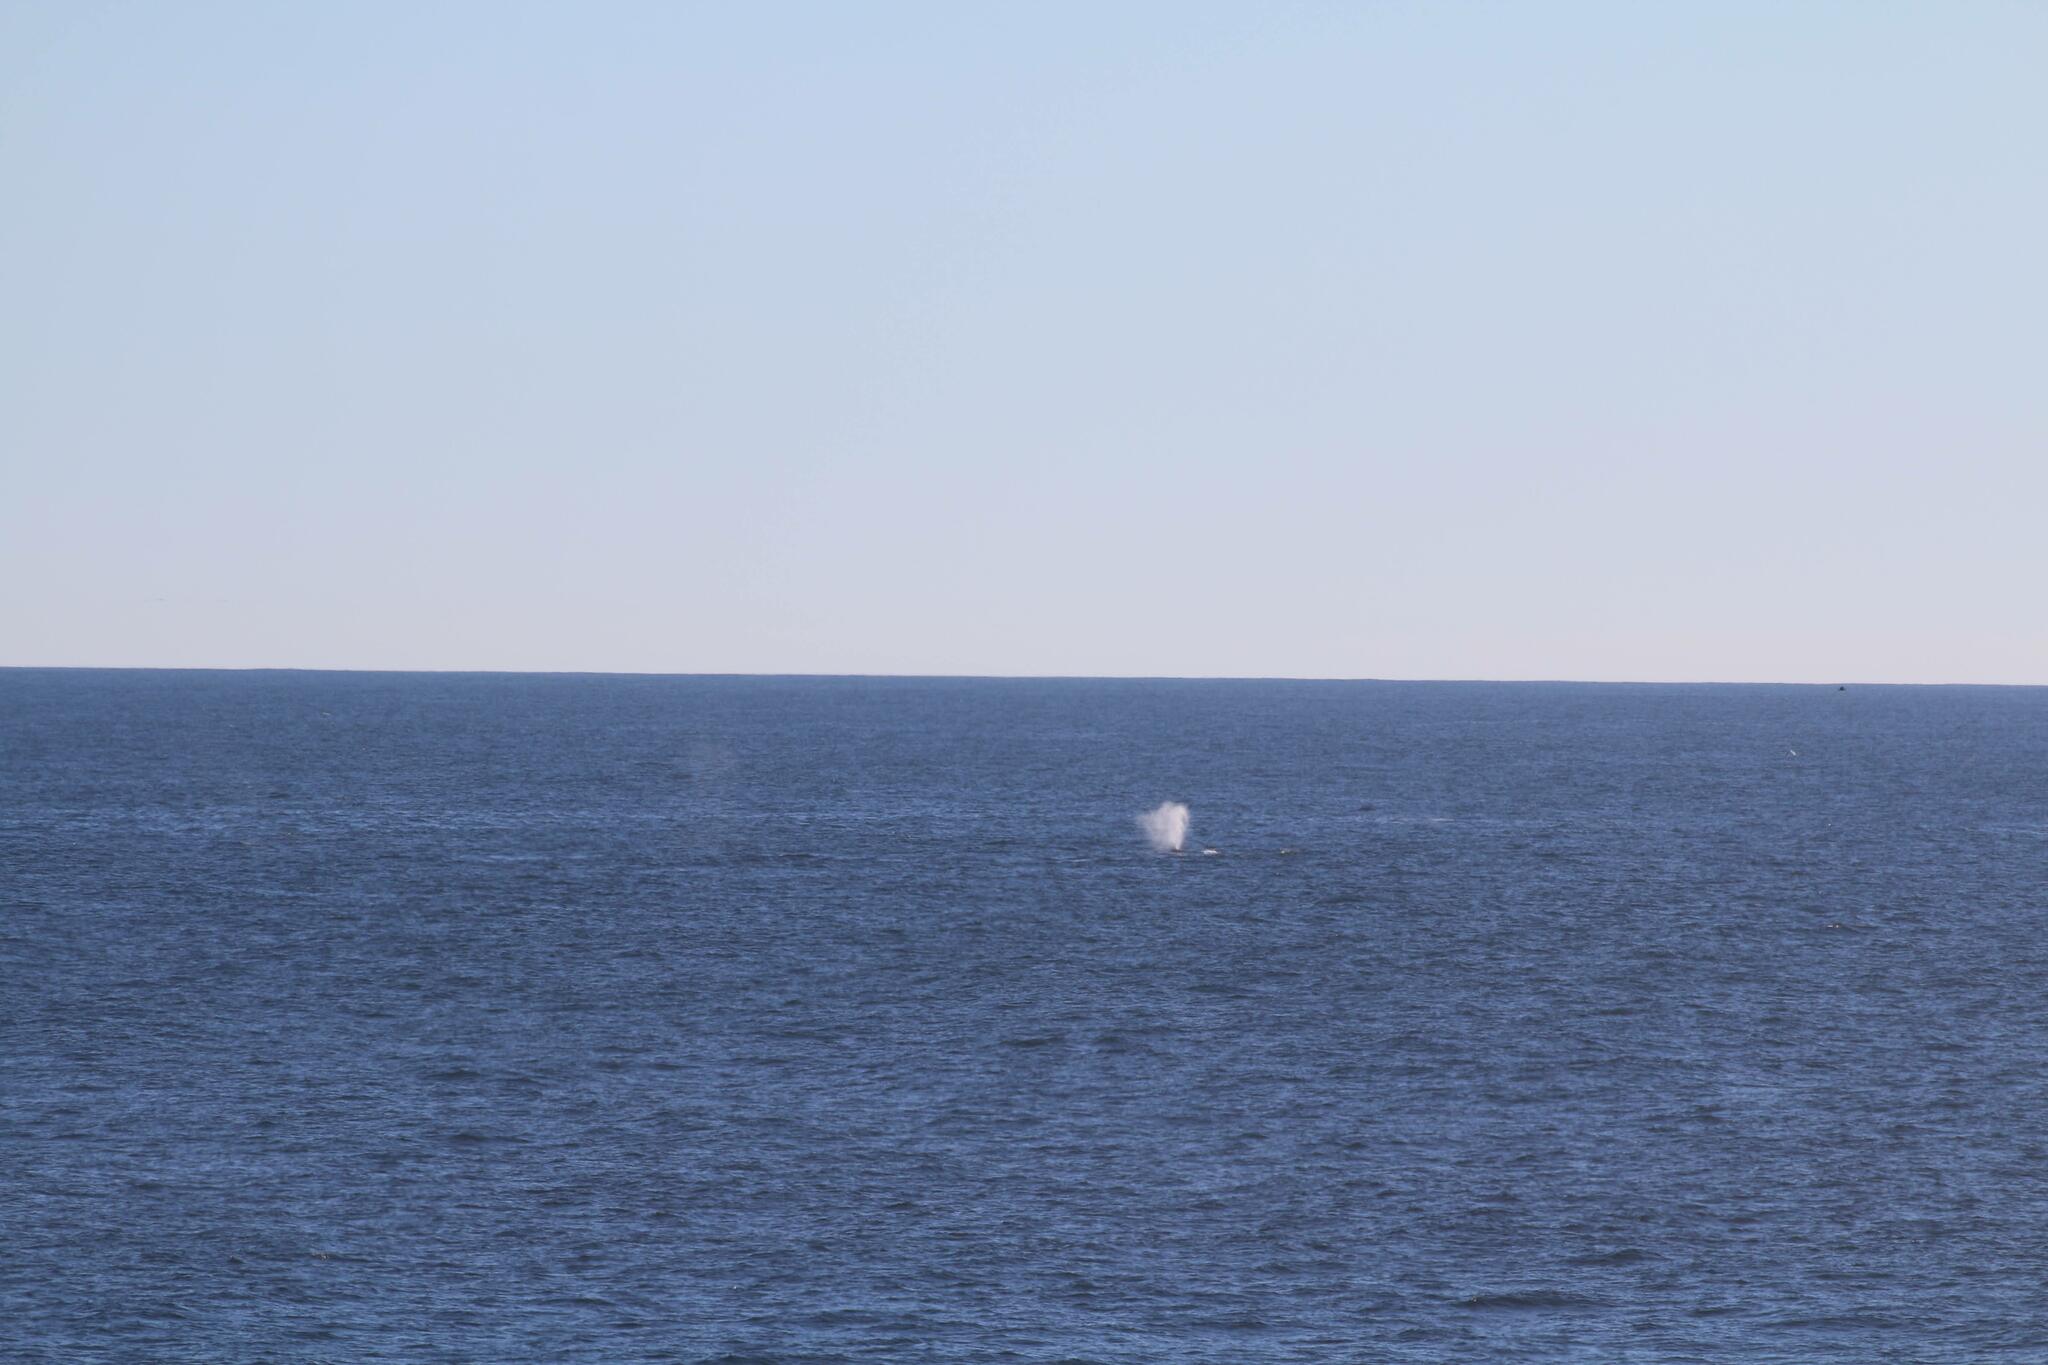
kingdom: Animalia
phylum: Chordata
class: Mammalia
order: Cetacea
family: Balaenopteridae
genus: Megaptera
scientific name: Megaptera novaeangliae
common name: Humpback whale
